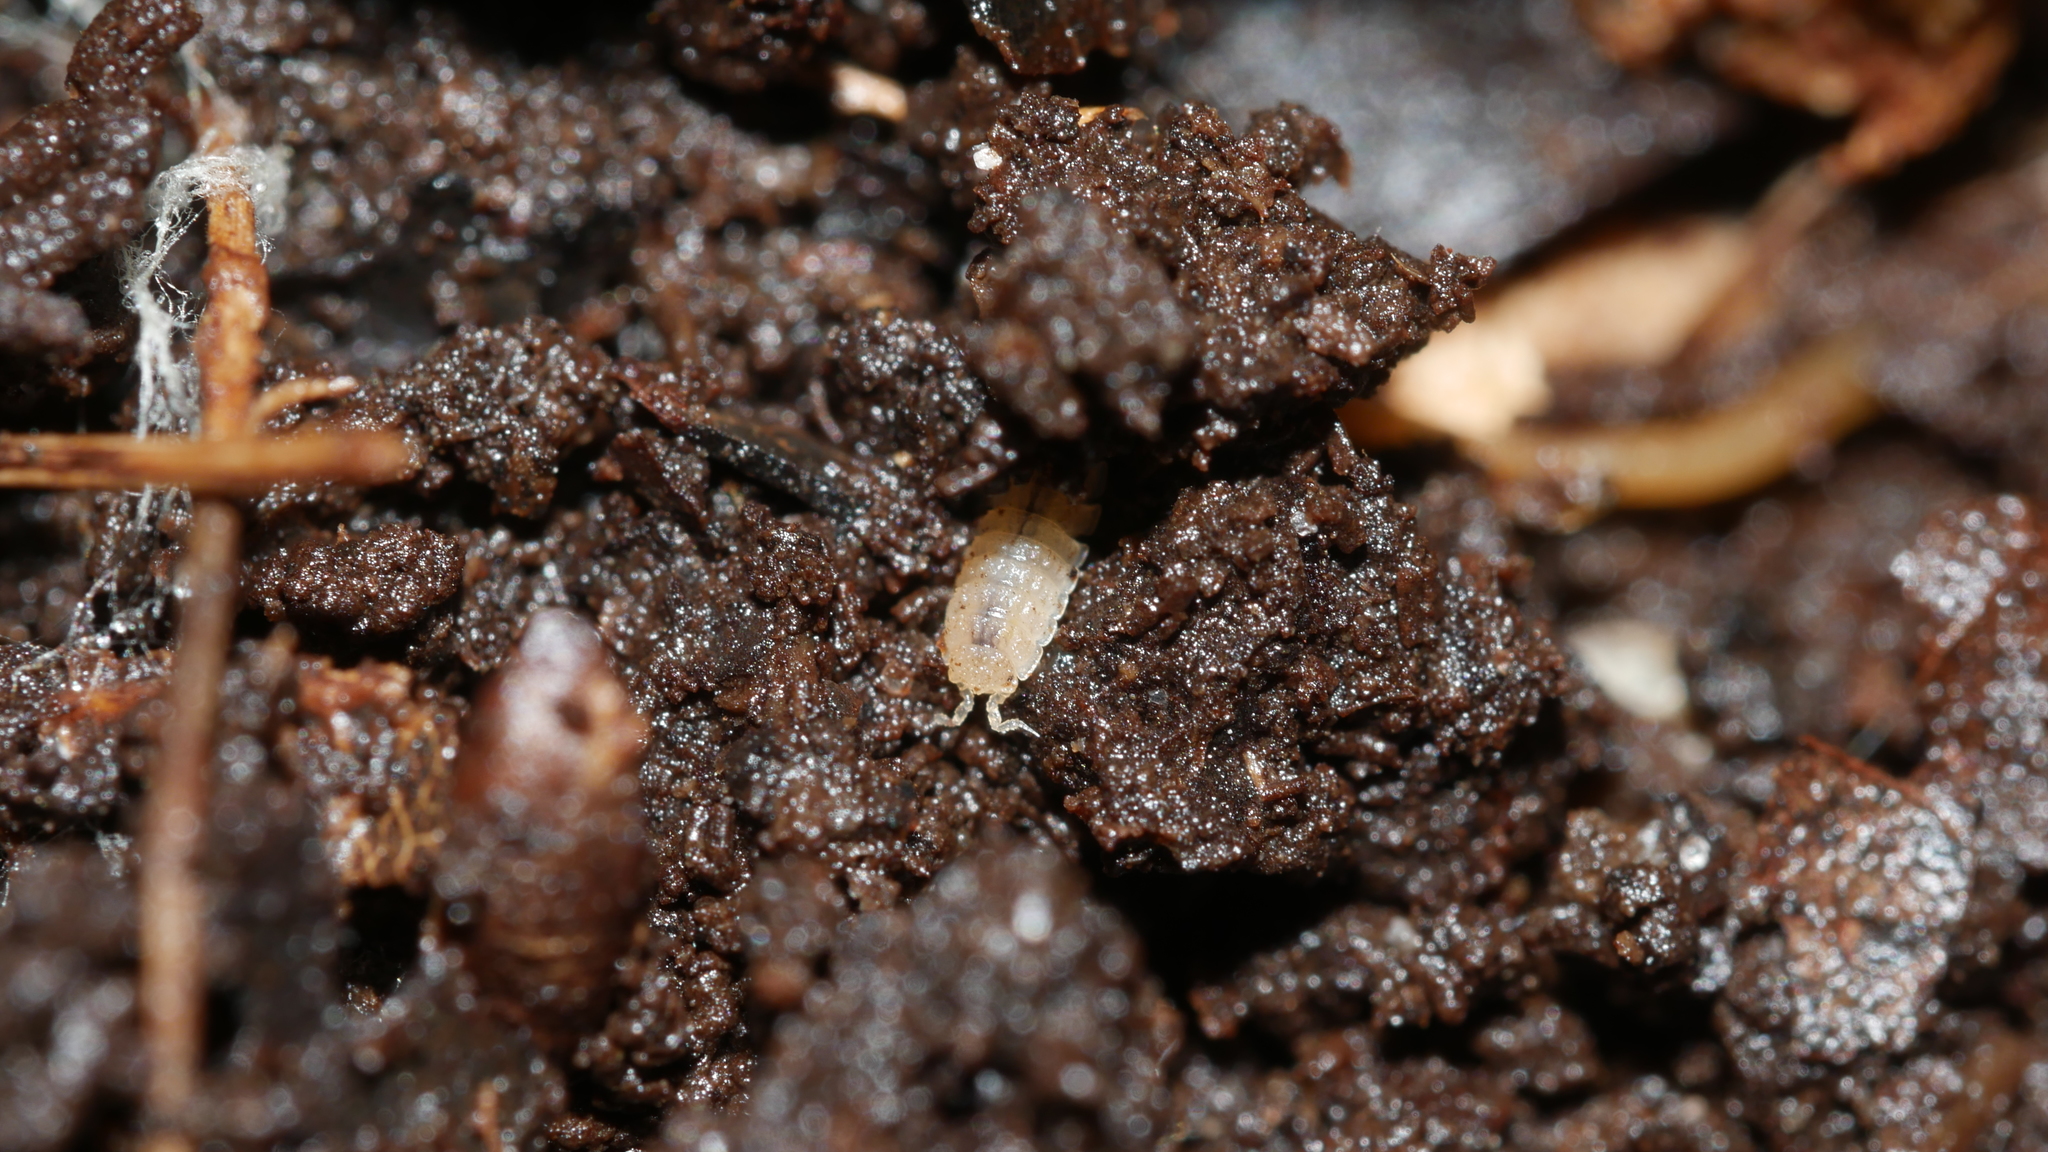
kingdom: Animalia
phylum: Arthropoda
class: Malacostraca
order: Isopoda
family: Trichoniscidae
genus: Haplophthalmus
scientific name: Haplophthalmus danicus
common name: Pillbug
